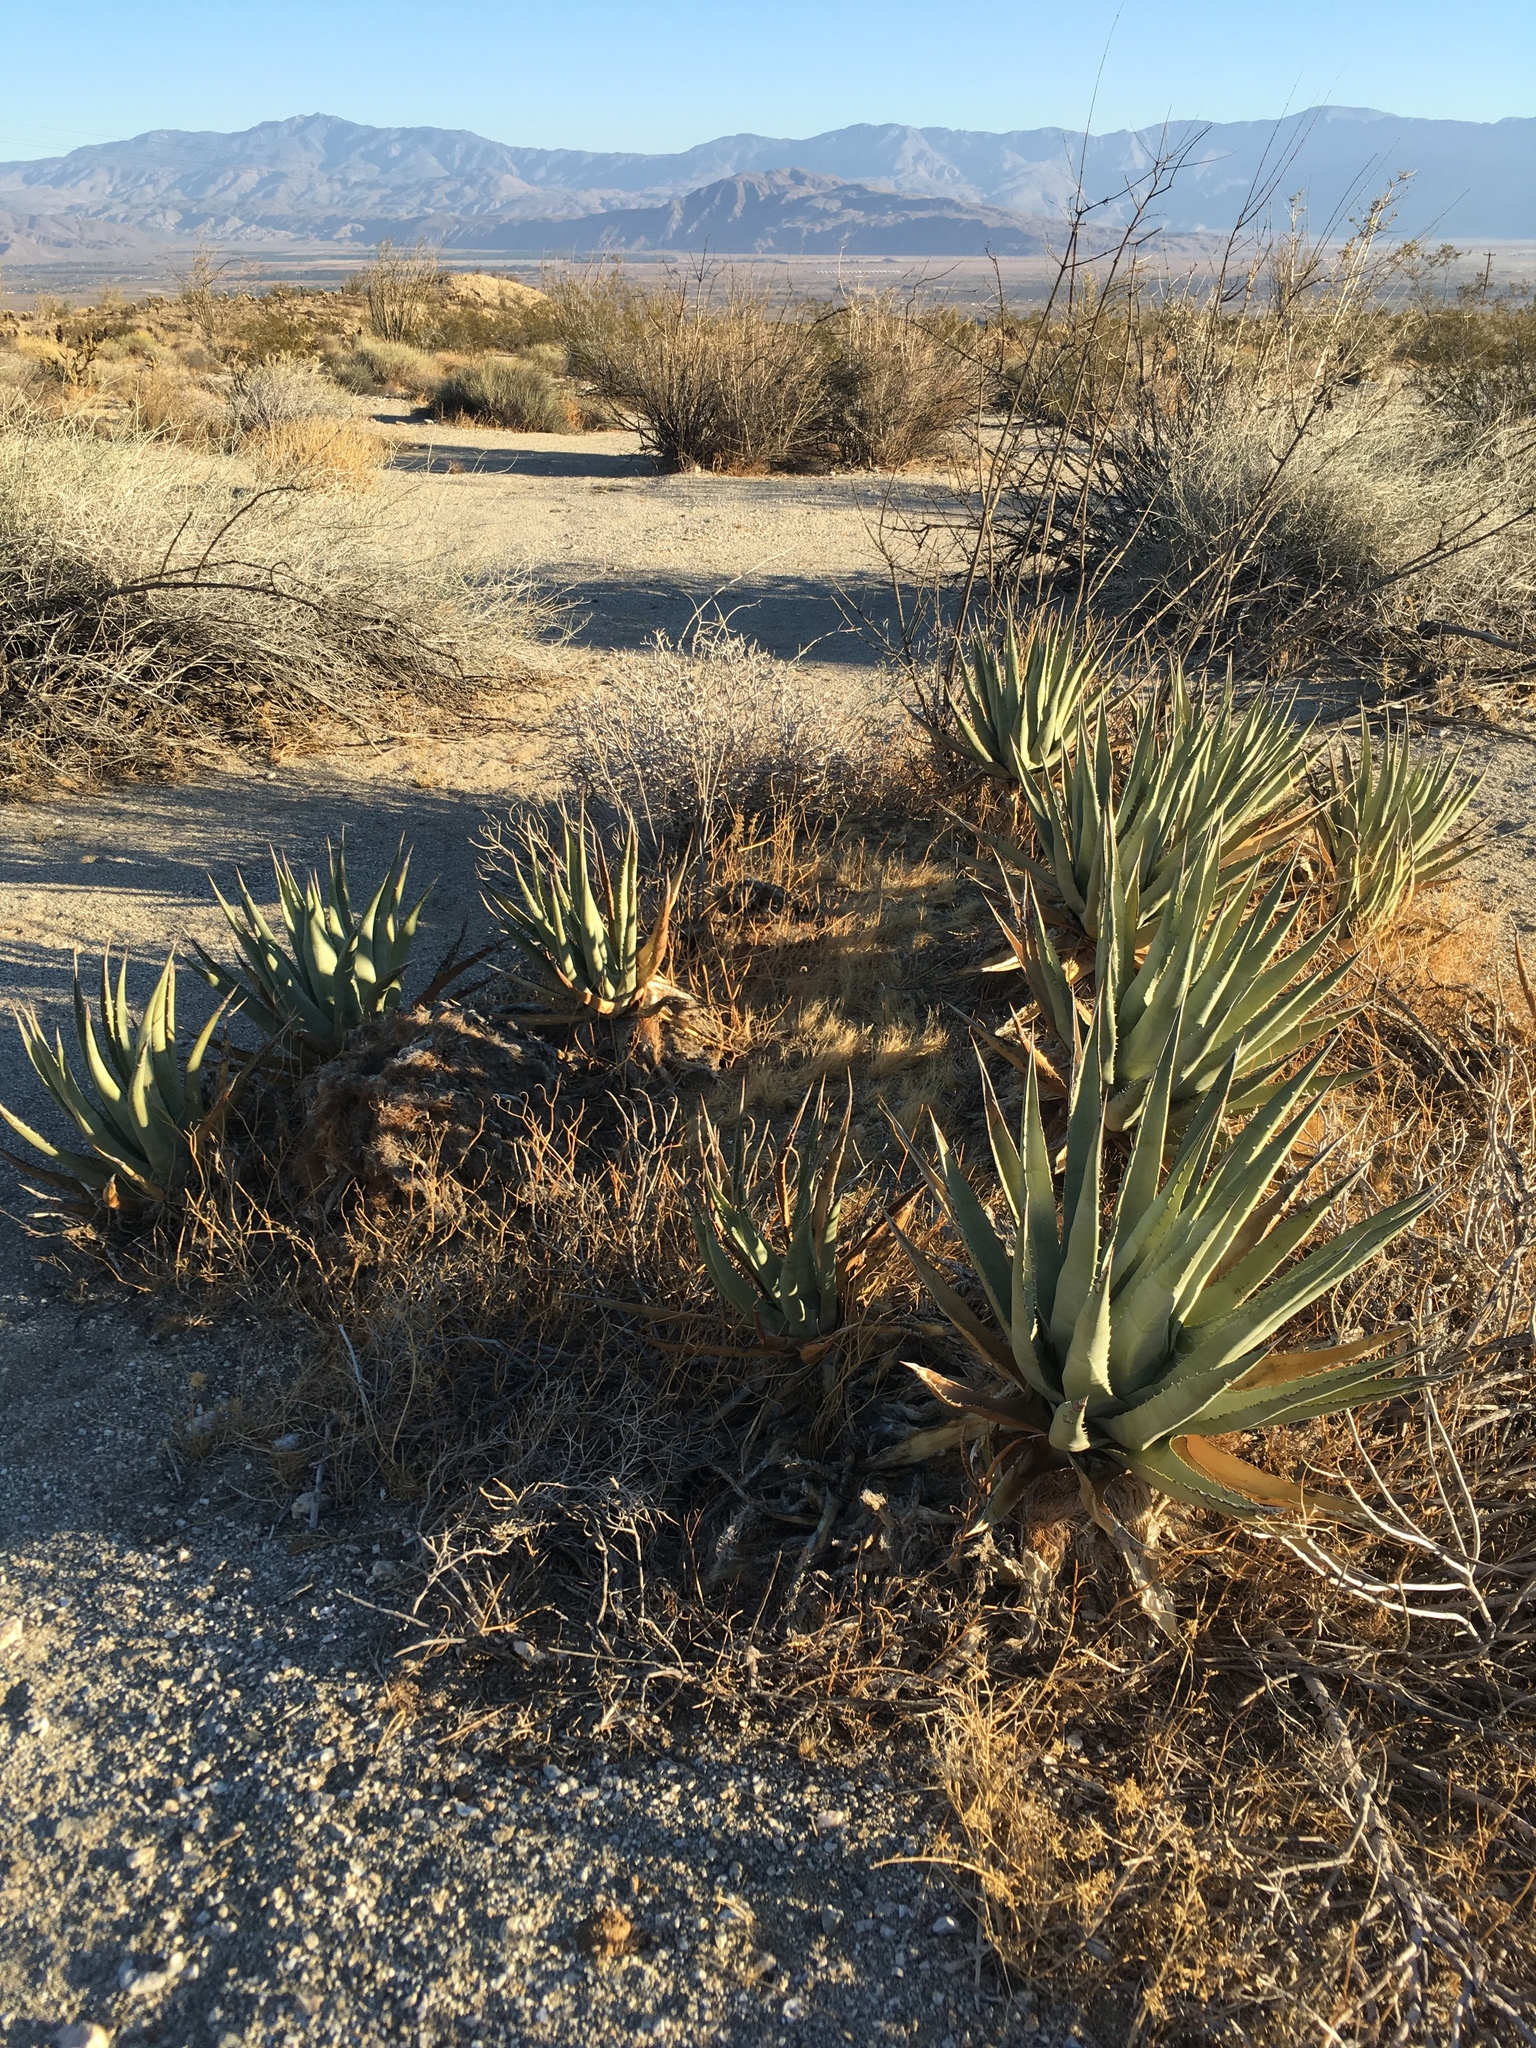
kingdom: Plantae
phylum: Tracheophyta
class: Liliopsida
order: Asparagales
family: Asparagaceae
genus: Agave
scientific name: Agave deserti
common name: Desert agave
